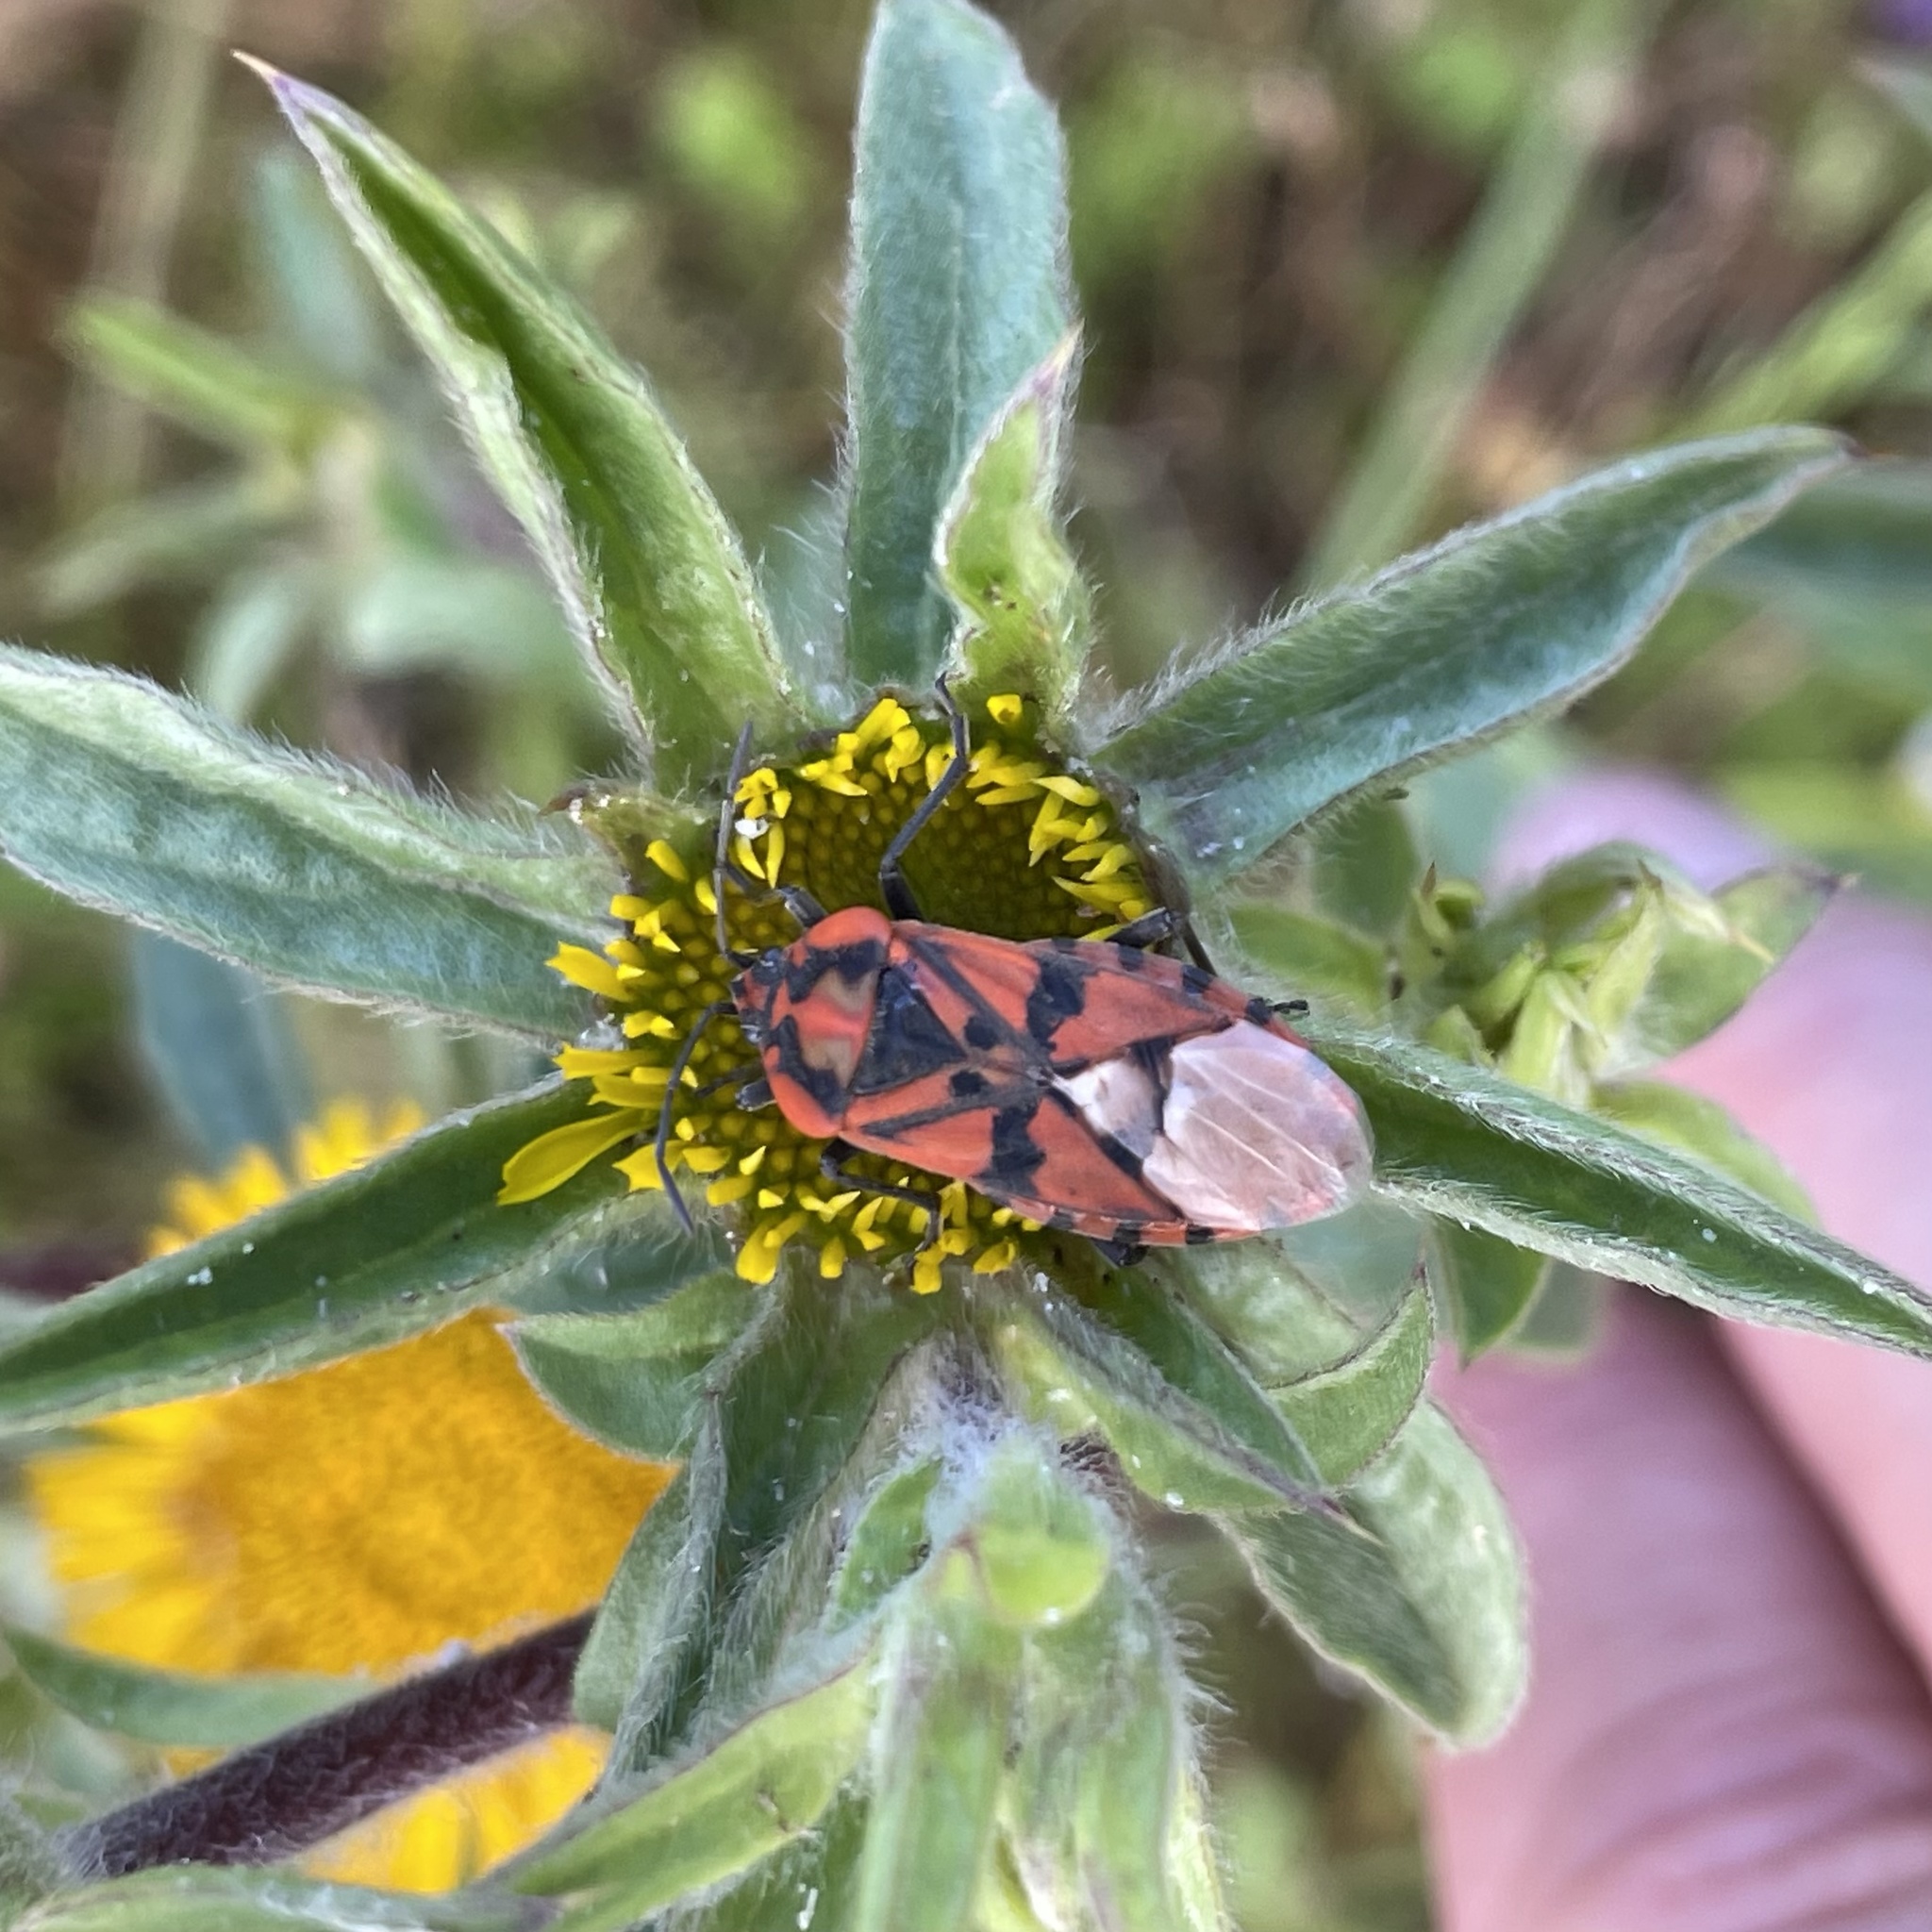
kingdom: Animalia
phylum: Arthropoda
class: Insecta
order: Hemiptera
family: Lygaeidae
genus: Spilostethus
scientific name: Spilostethus pandurus
